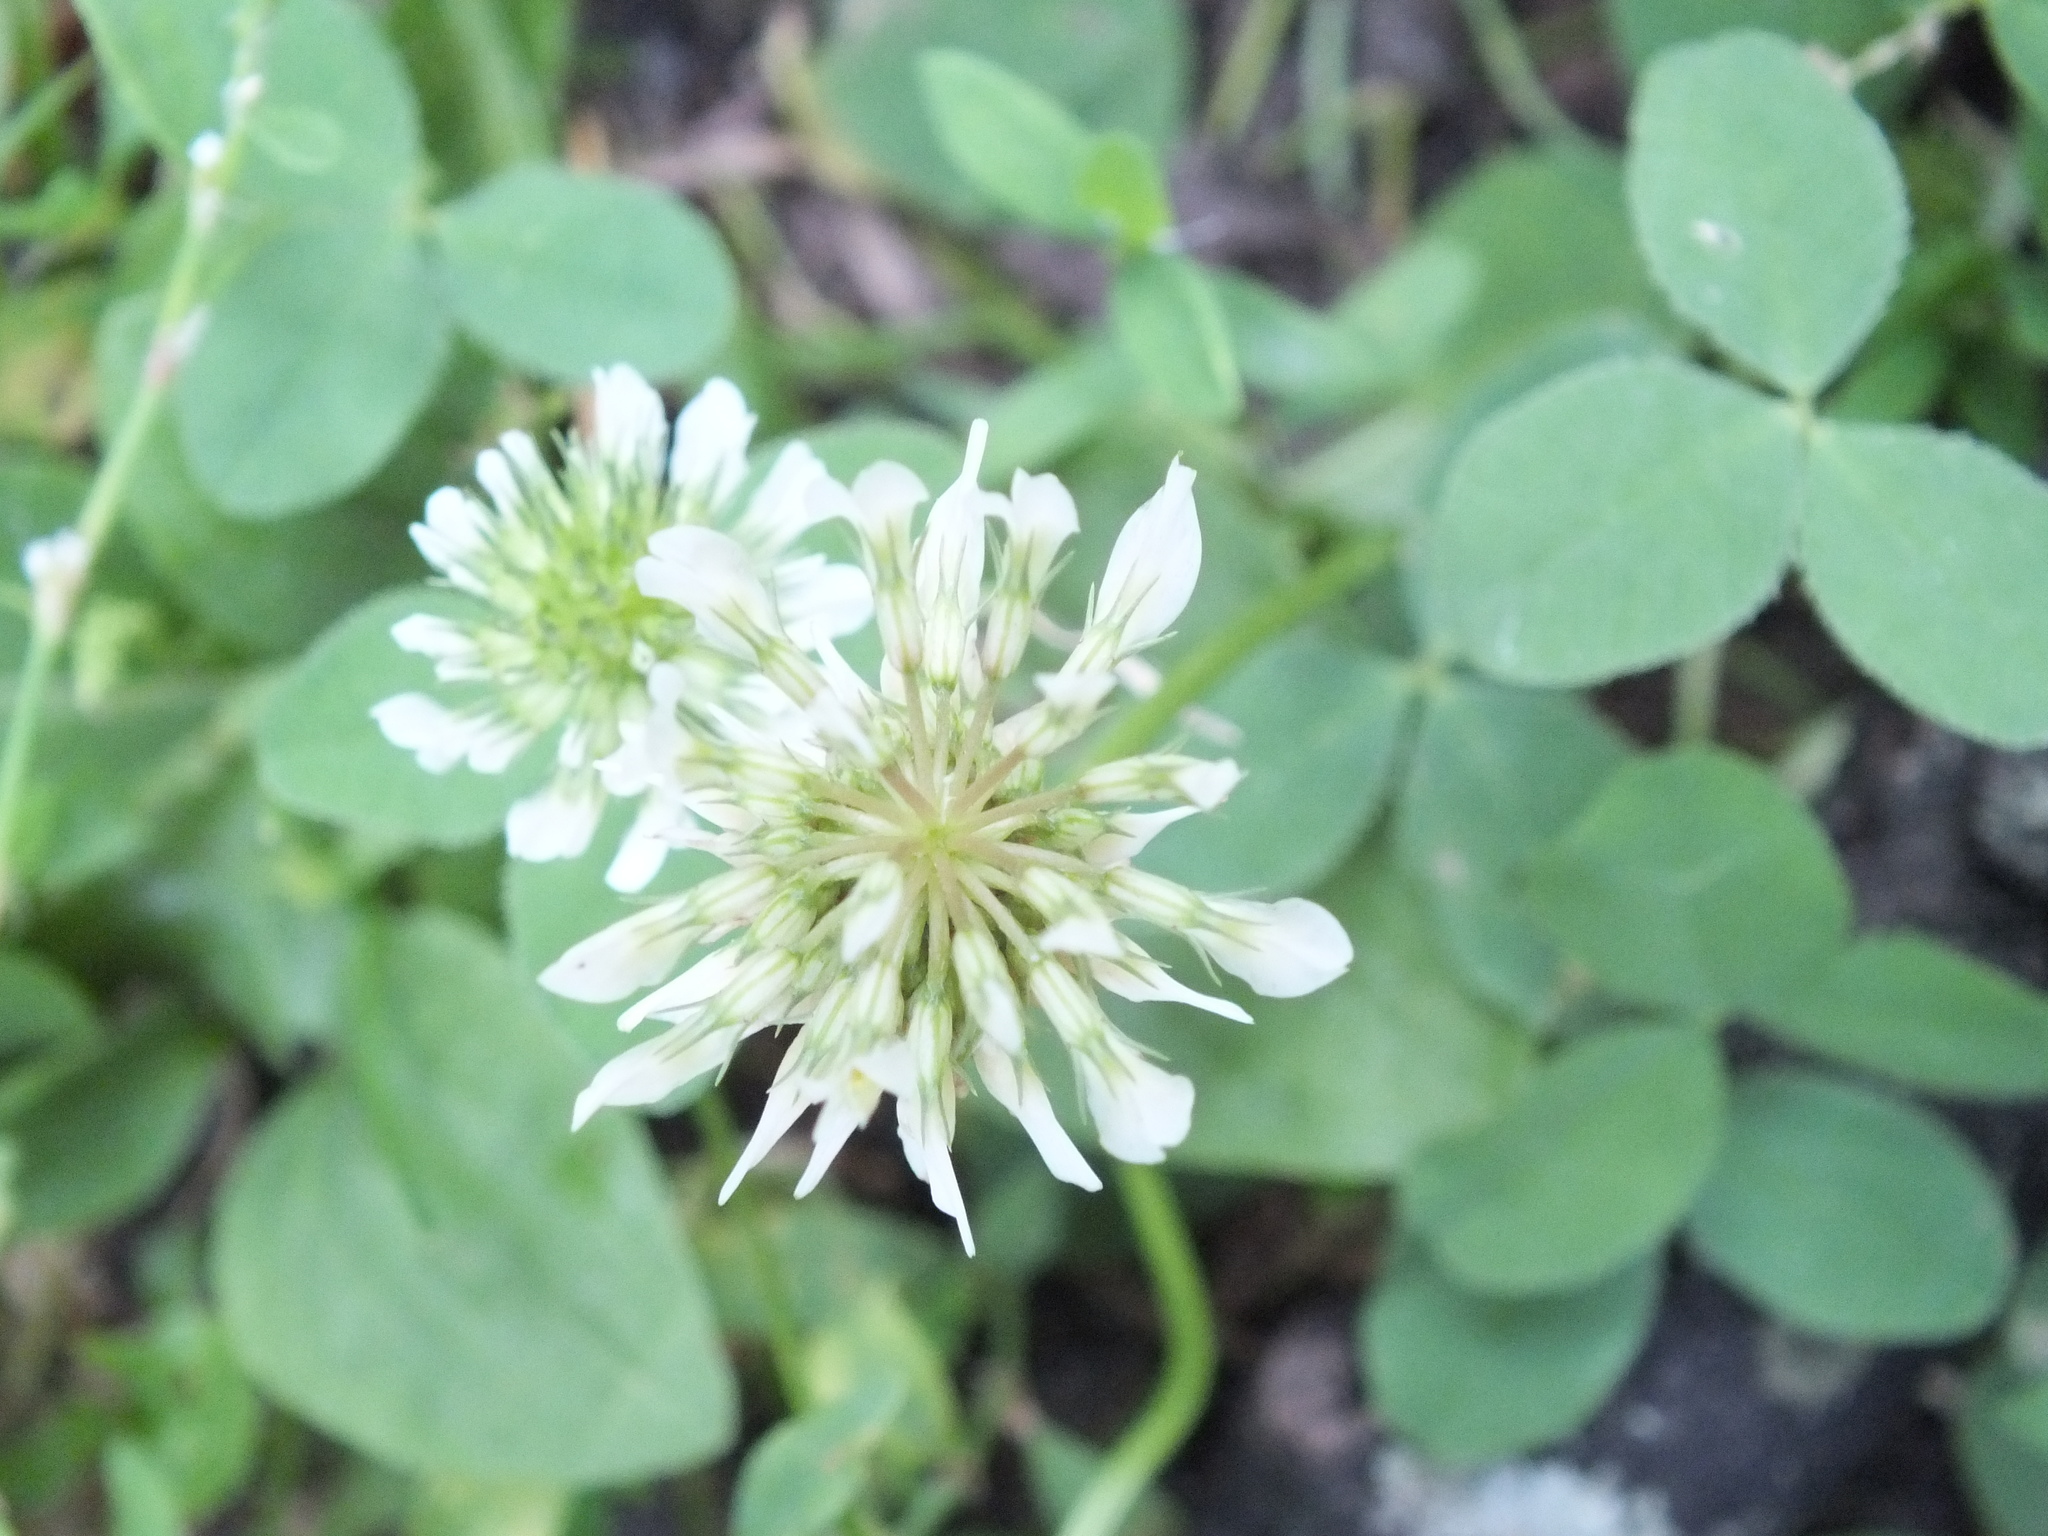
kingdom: Plantae
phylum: Tracheophyta
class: Magnoliopsida
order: Fabales
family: Fabaceae
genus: Trifolium
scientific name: Trifolium repens
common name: White clover
